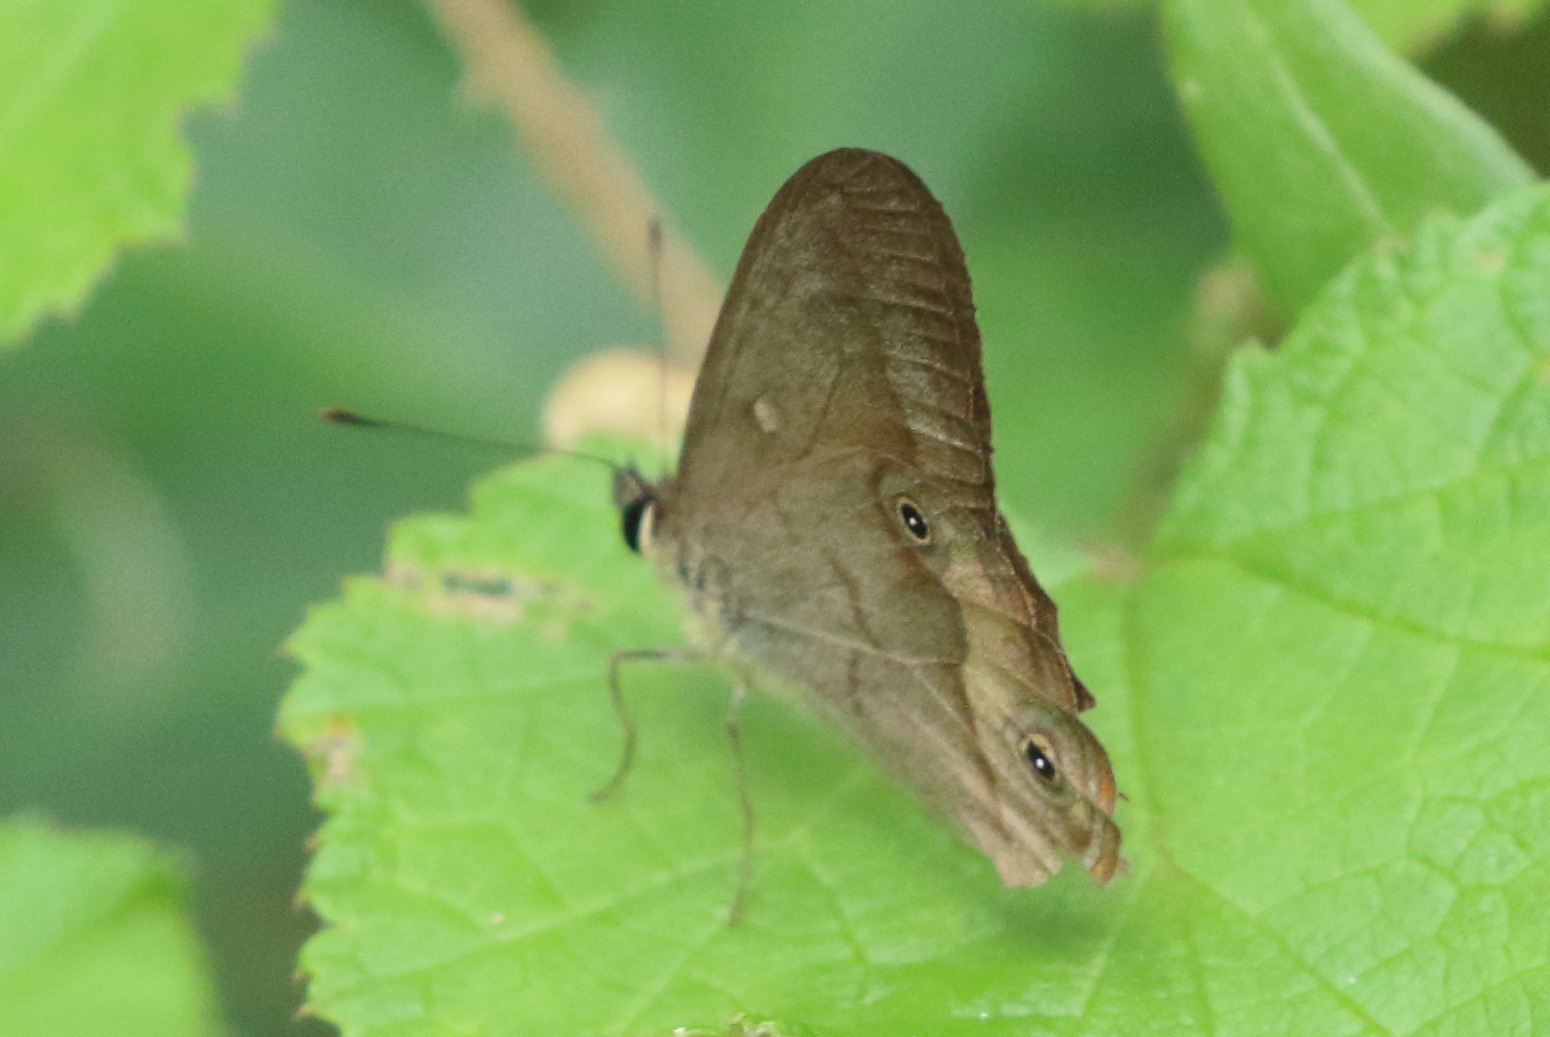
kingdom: Animalia
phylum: Arthropoda
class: Insecta
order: Lepidoptera
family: Nymphalidae
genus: Hypocysta
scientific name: Hypocysta metirius
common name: Brown ringlet
